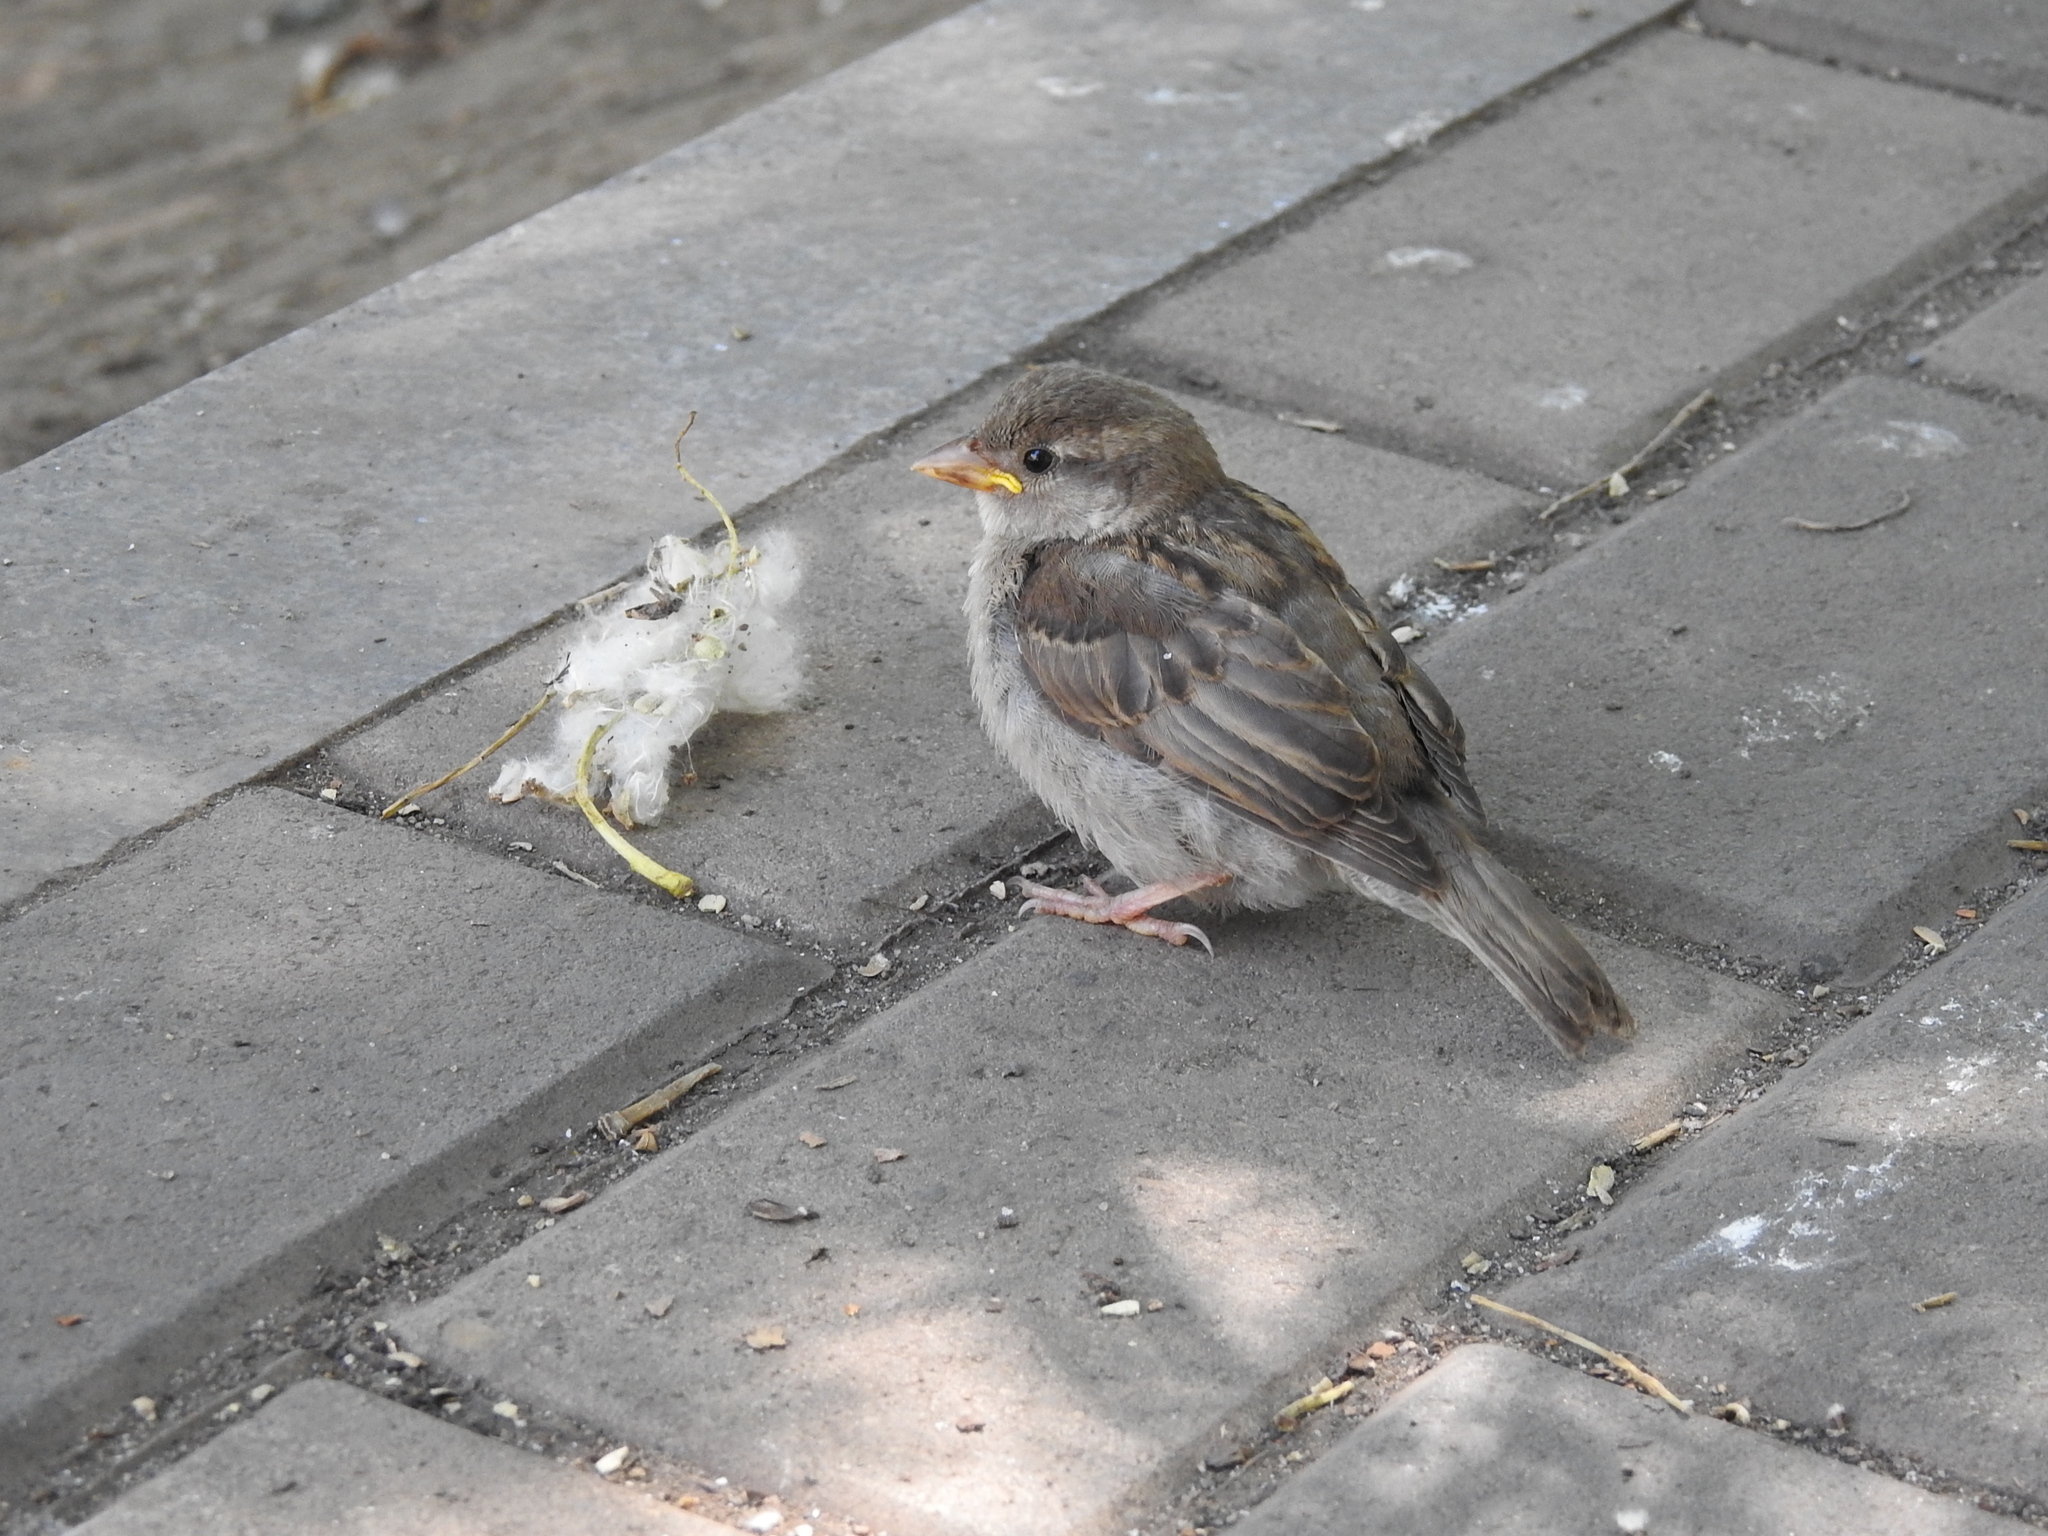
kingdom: Animalia
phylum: Chordata
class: Aves
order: Passeriformes
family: Passeridae
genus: Passer
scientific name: Passer domesticus
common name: House sparrow
